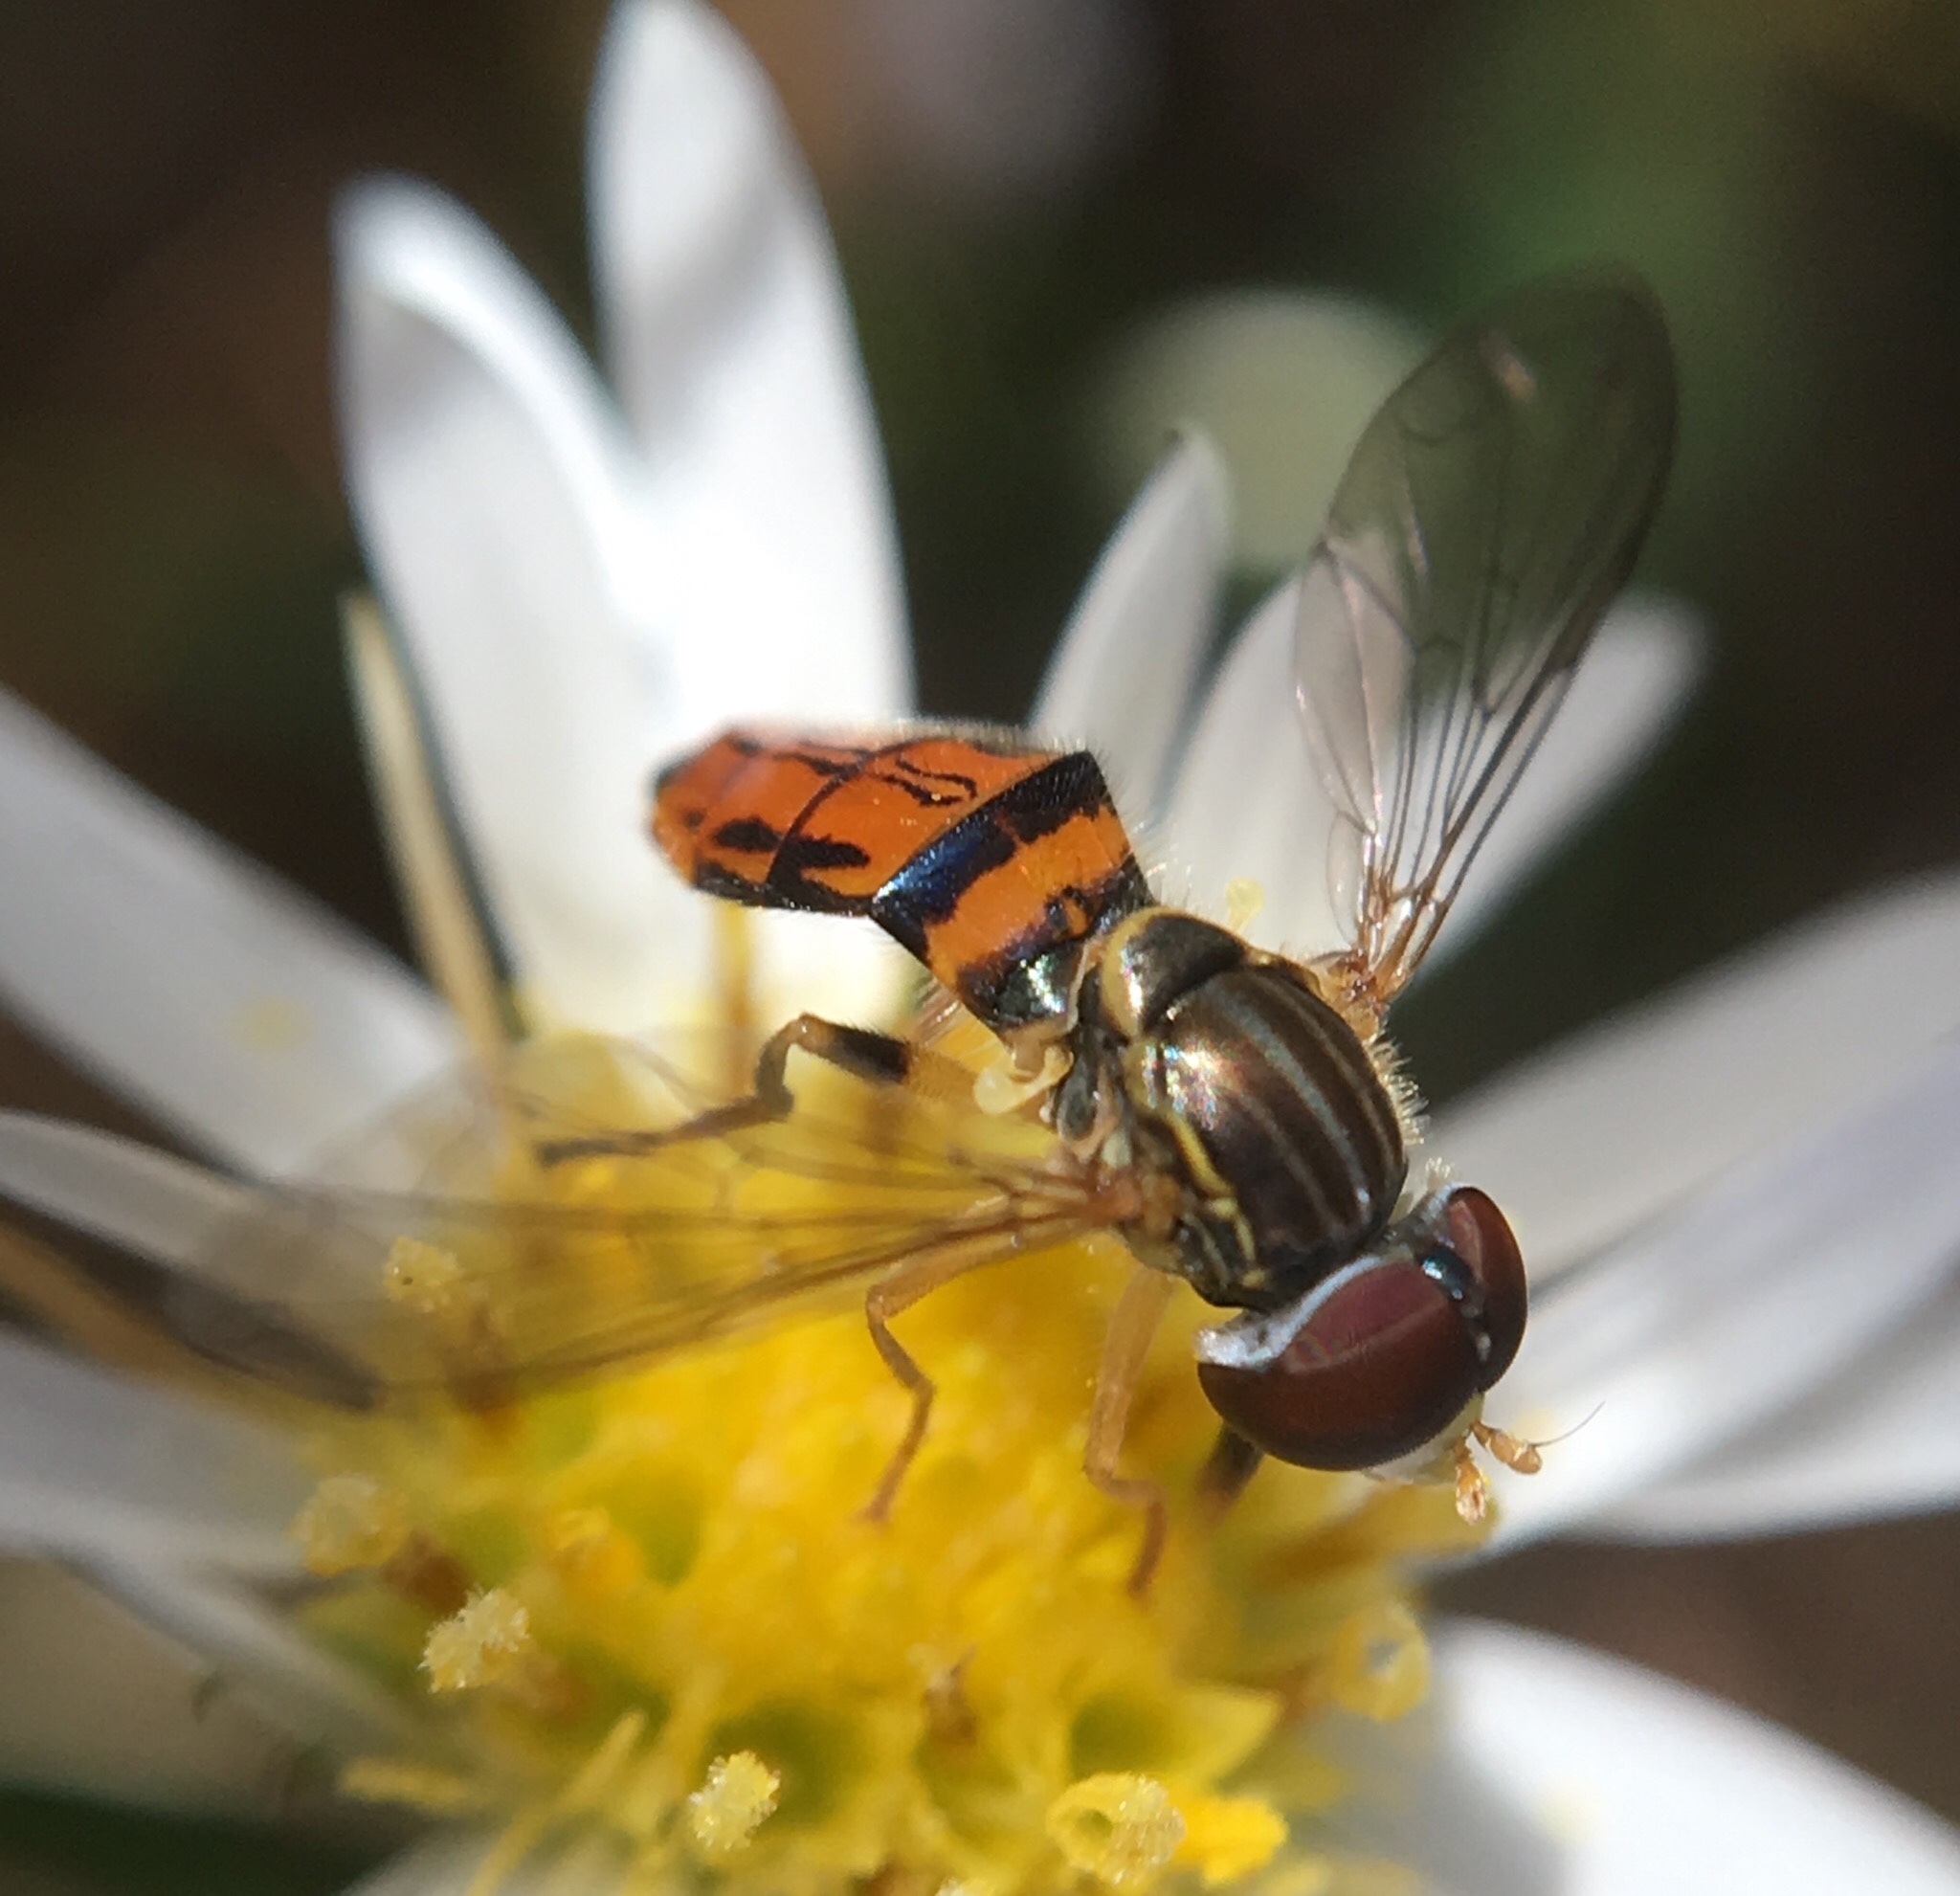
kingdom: Animalia
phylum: Arthropoda
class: Insecta
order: Diptera
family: Syrphidae
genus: Toxomerus
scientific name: Toxomerus boscii
